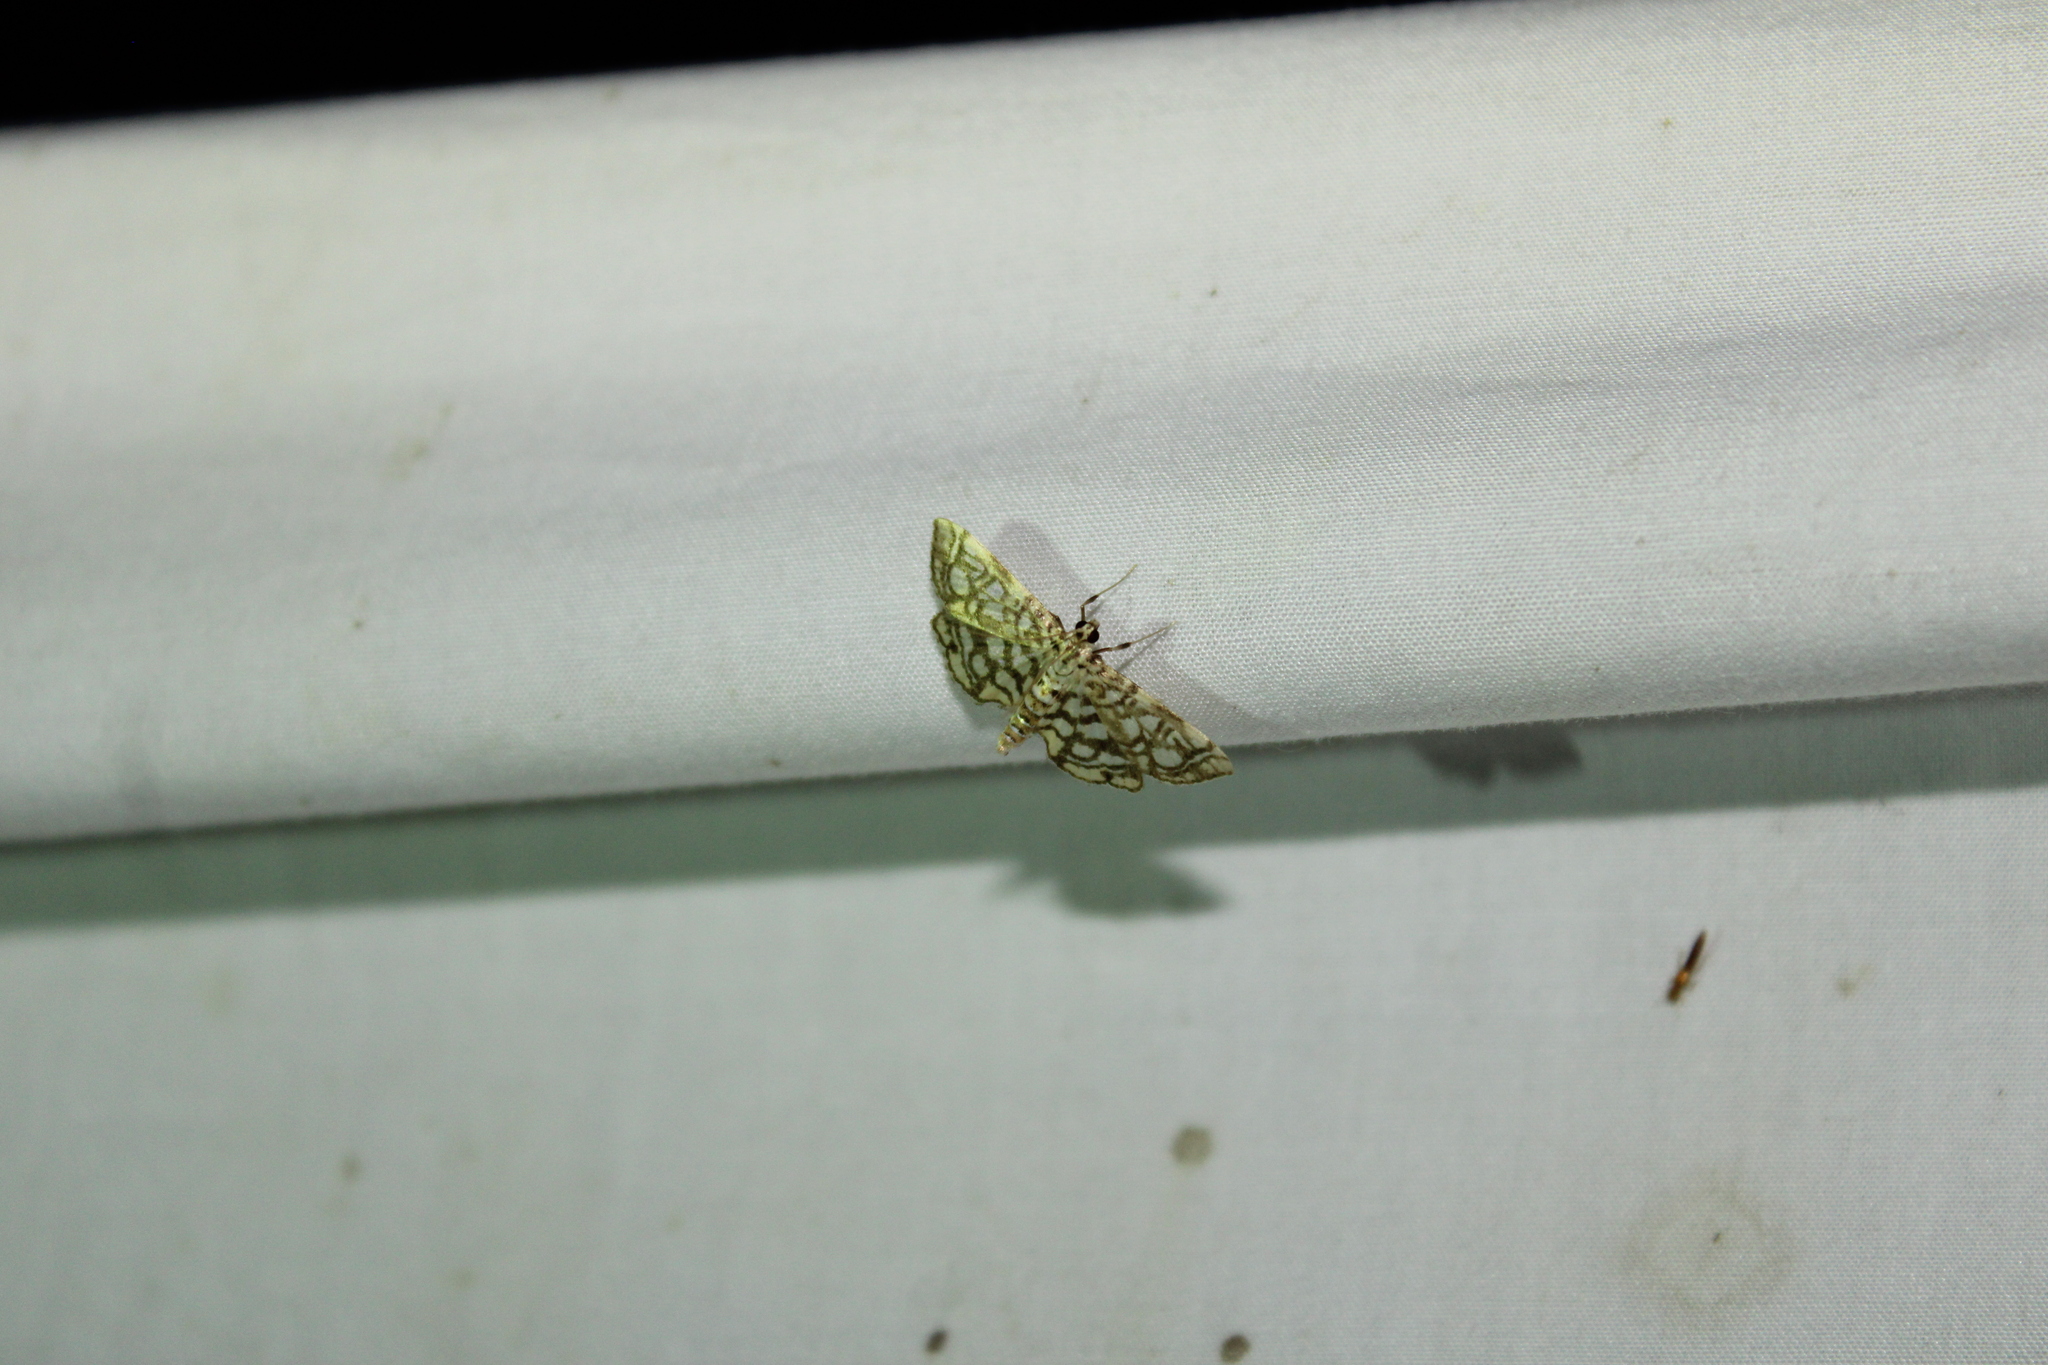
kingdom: Animalia
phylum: Arthropoda
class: Insecta
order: Lepidoptera
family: Crambidae
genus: Lygropia
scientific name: Lygropia rivulalis
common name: Bog lygropia moth
